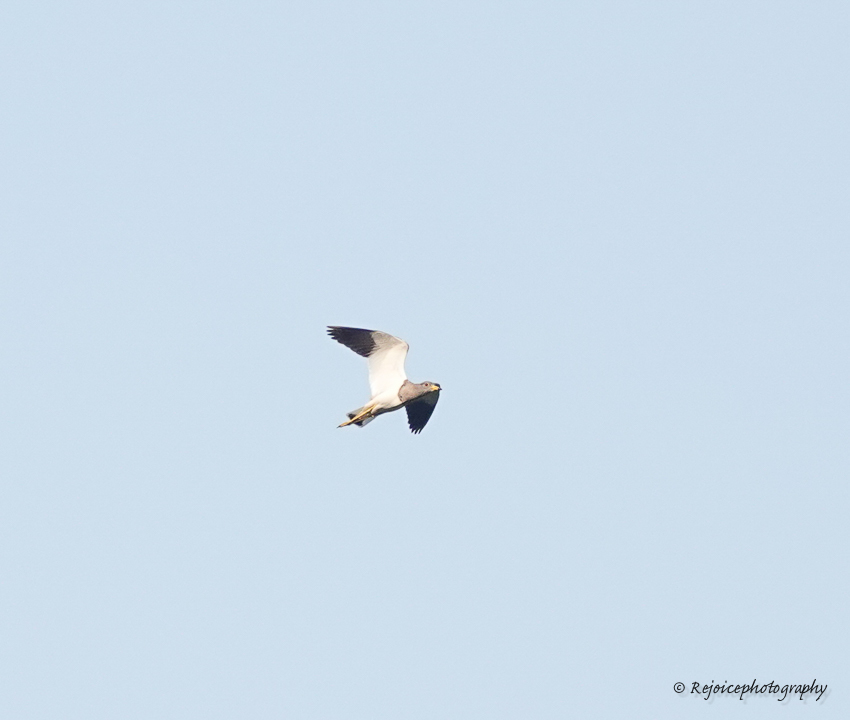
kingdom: Animalia
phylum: Chordata
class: Aves
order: Charadriiformes
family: Charadriidae
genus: Vanellus
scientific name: Vanellus cinereus
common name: Grey-headed lapwing
